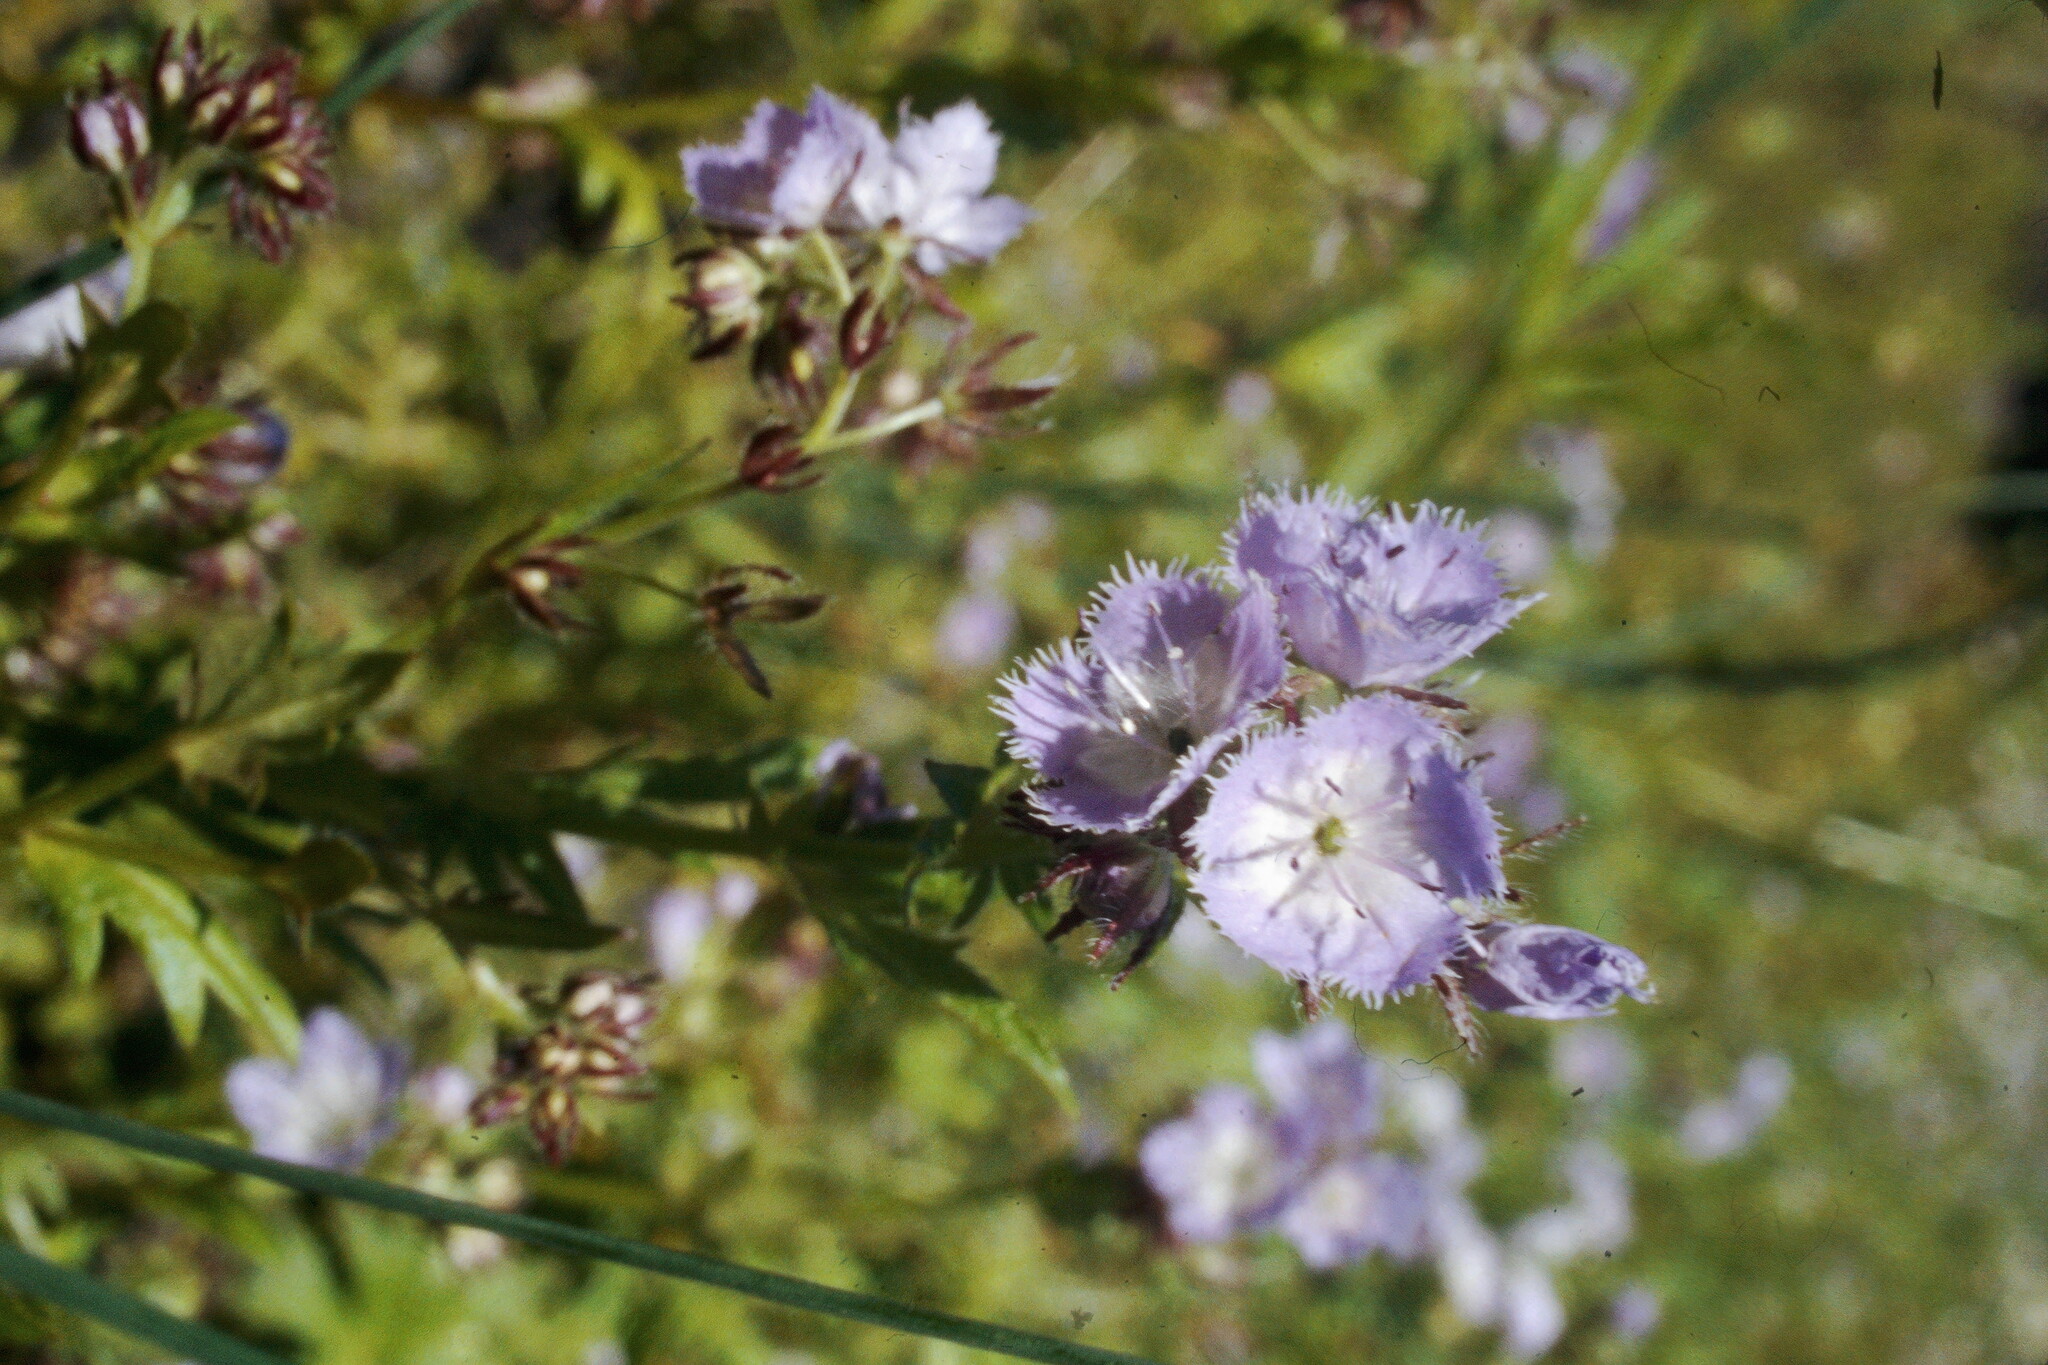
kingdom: Plantae
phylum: Tracheophyta
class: Magnoliopsida
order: Boraginales
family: Hydrophyllaceae
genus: Phacelia
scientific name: Phacelia purshii
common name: Miami-mist
